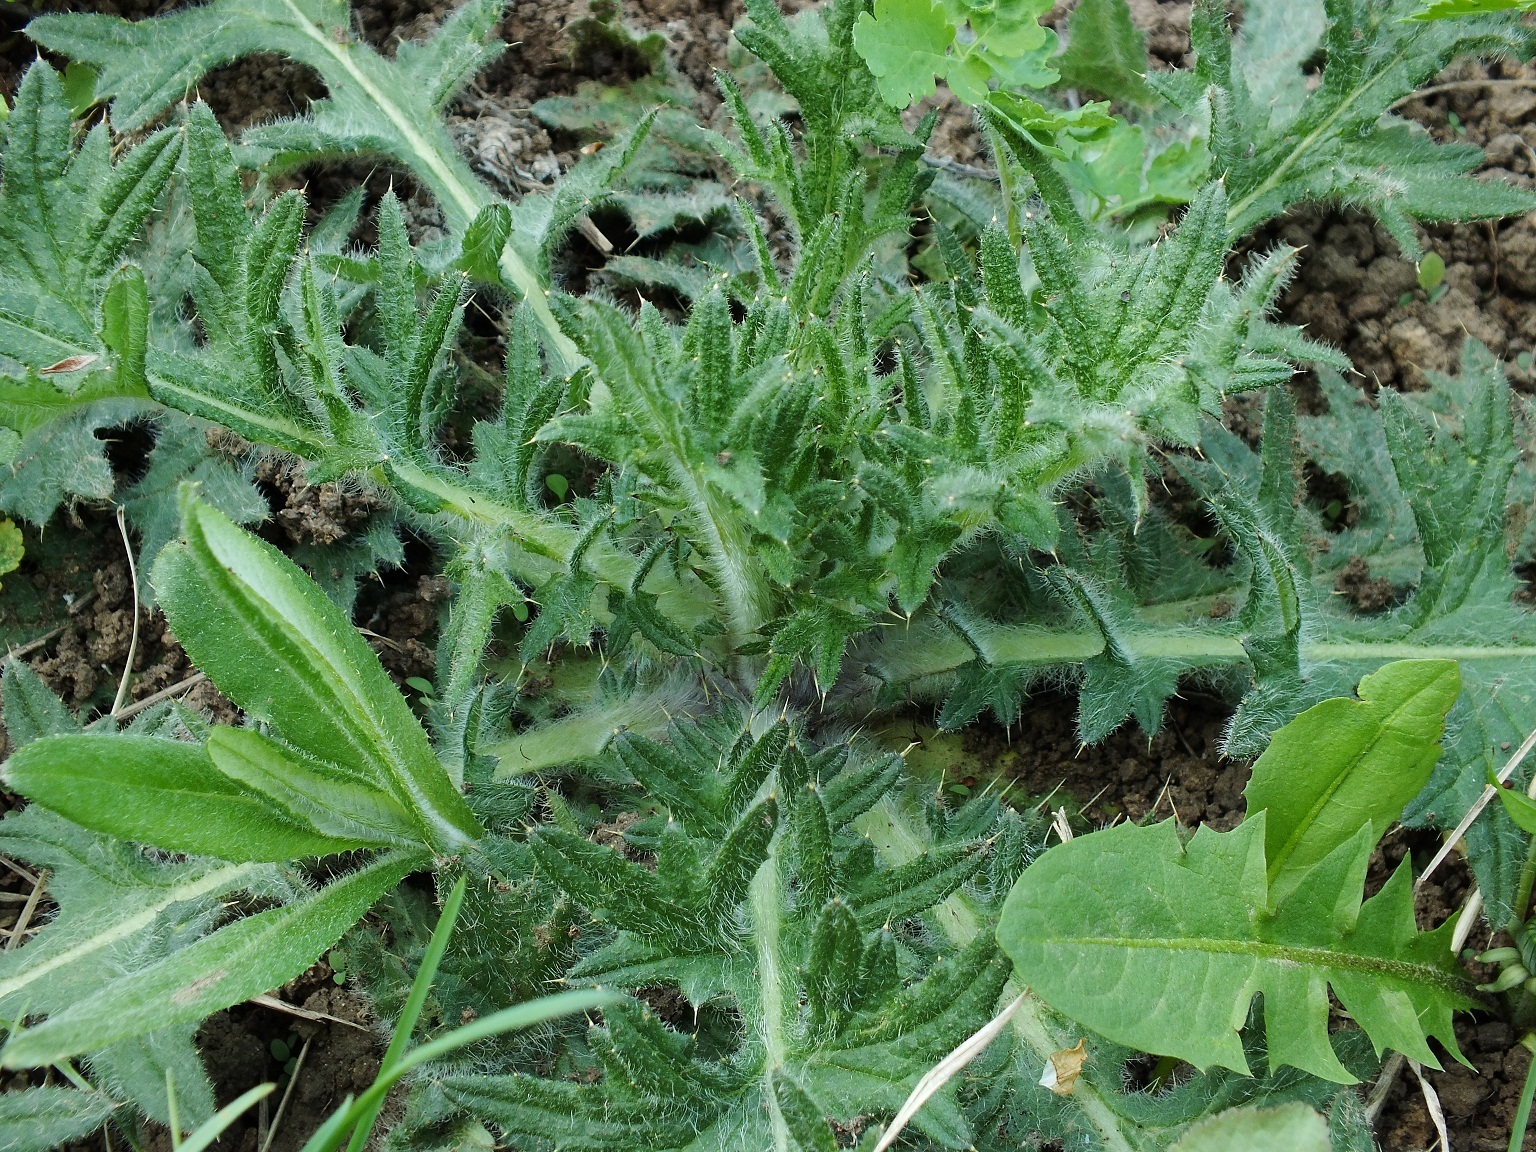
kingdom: Plantae
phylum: Tracheophyta
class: Magnoliopsida
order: Asterales
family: Asteraceae
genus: Cirsium
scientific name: Cirsium vulgare
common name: Bull thistle
